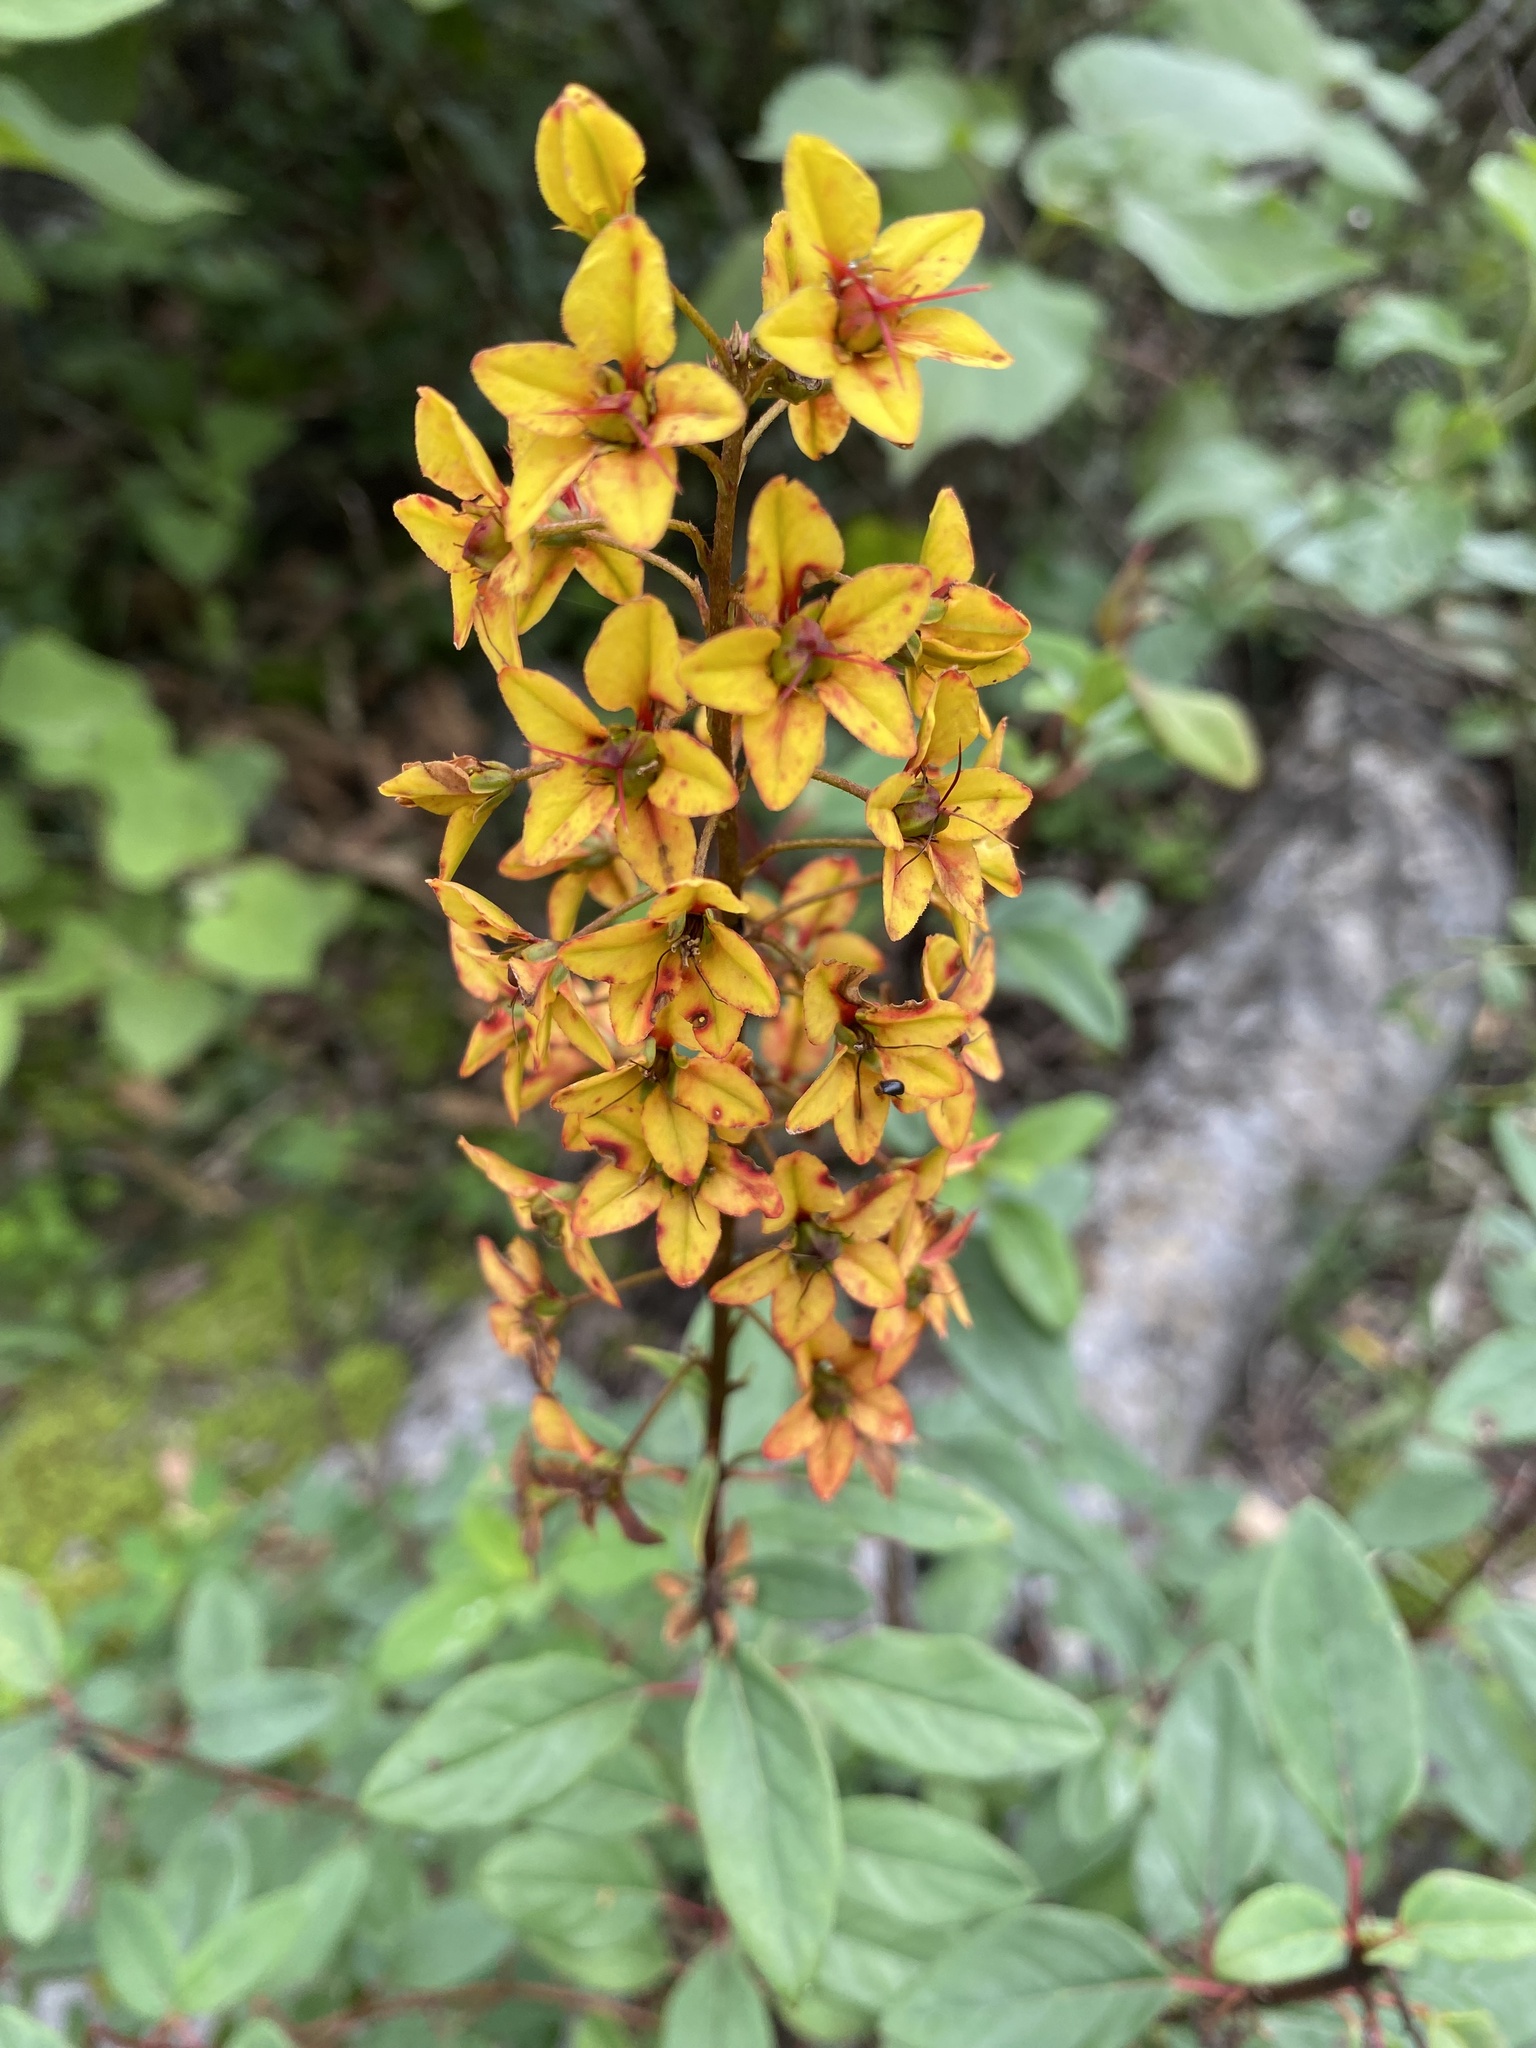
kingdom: Plantae
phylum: Tracheophyta
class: Magnoliopsida
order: Malpighiales
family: Malpighiaceae
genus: Galphimia
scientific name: Galphimia glauca
